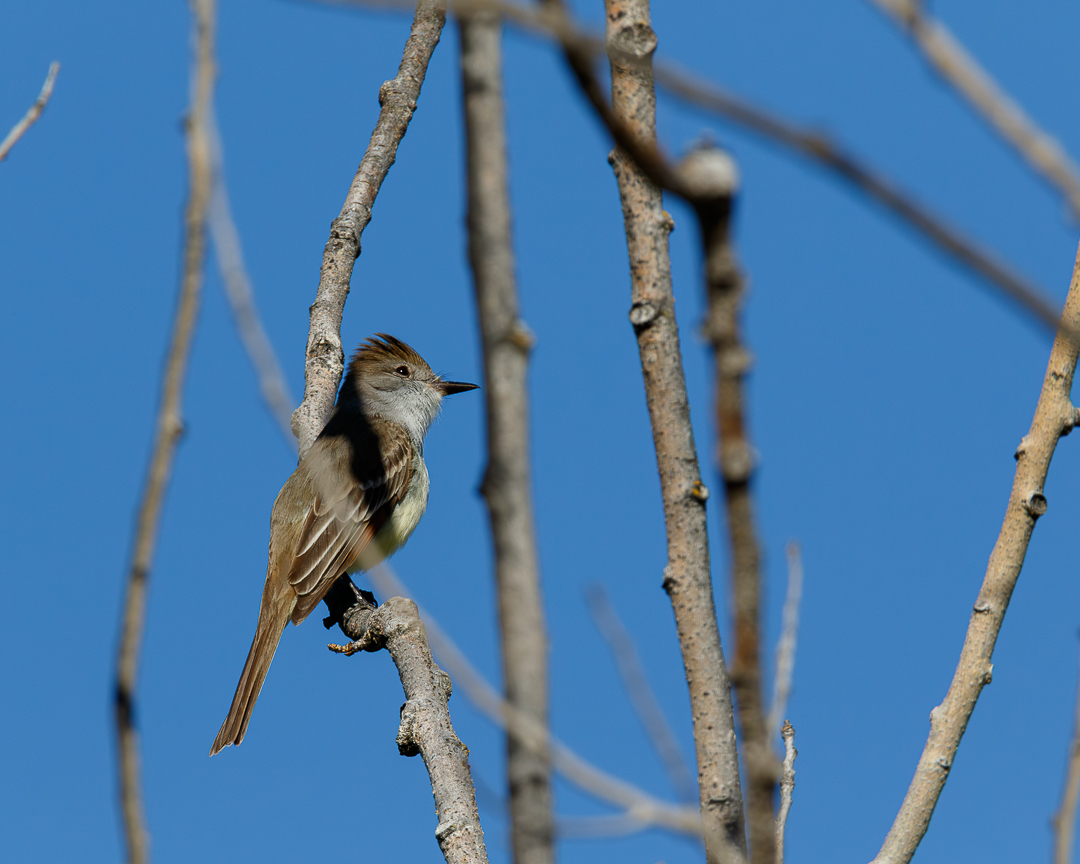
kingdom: Animalia
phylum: Chordata
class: Aves
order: Passeriformes
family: Tyrannidae
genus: Myiarchus
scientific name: Myiarchus cinerascens
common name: Ash-throated flycatcher
